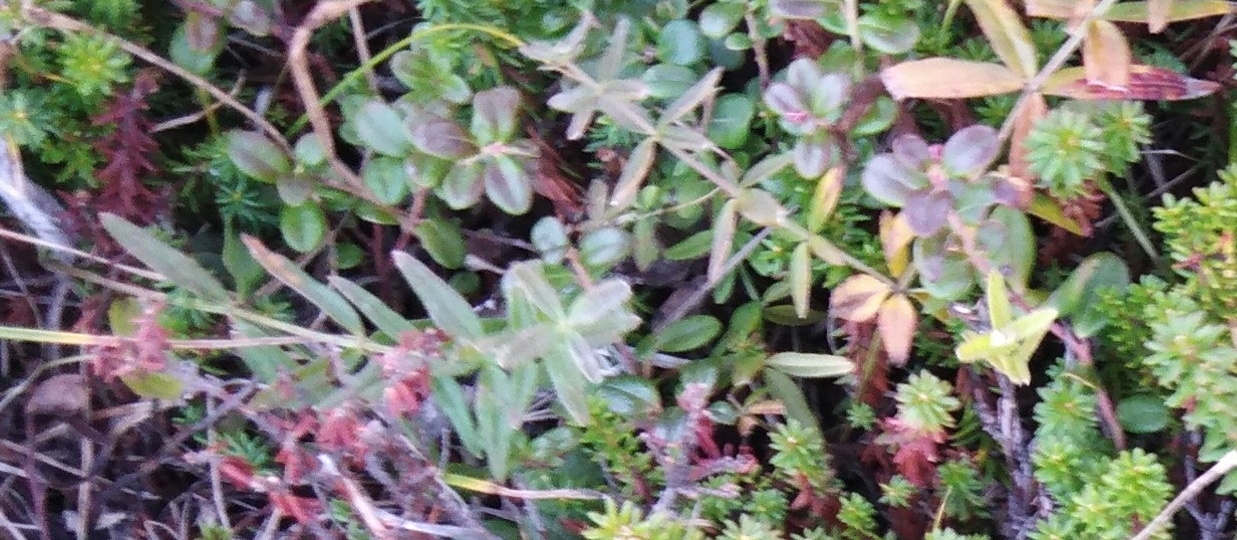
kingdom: Plantae
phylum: Tracheophyta
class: Magnoliopsida
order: Gentianales
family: Rubiaceae
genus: Galium
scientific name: Galium boreale
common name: Northern bedstraw
